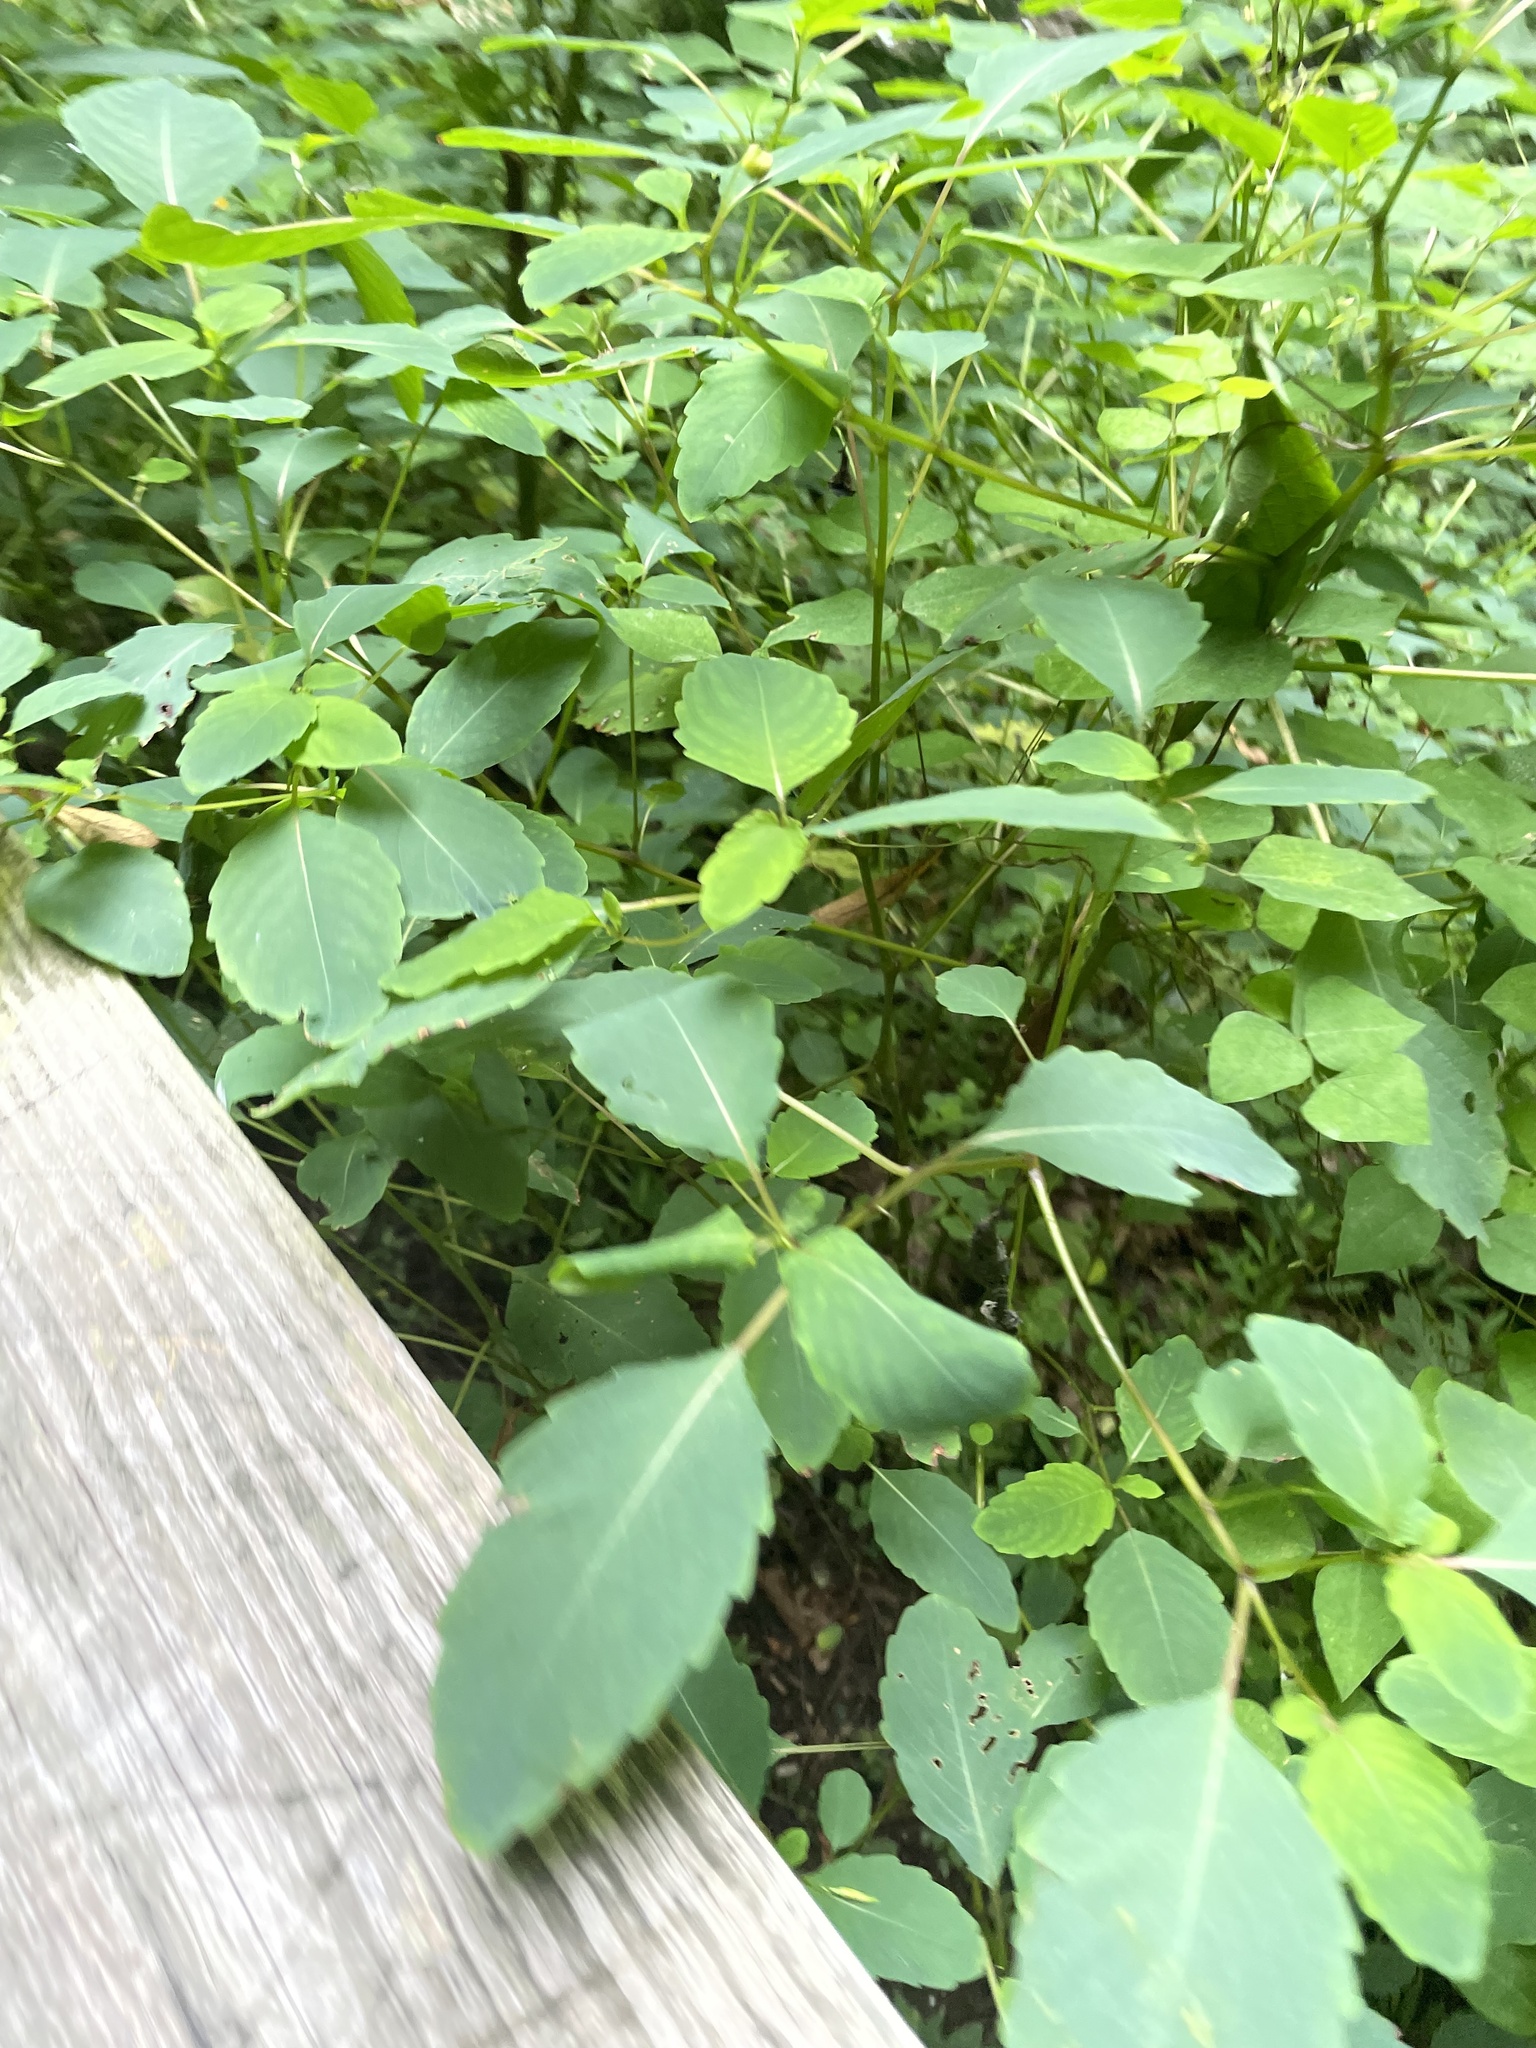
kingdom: Plantae
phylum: Tracheophyta
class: Magnoliopsida
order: Ericales
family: Balsaminaceae
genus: Impatiens
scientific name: Impatiens capensis
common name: Orange balsam
